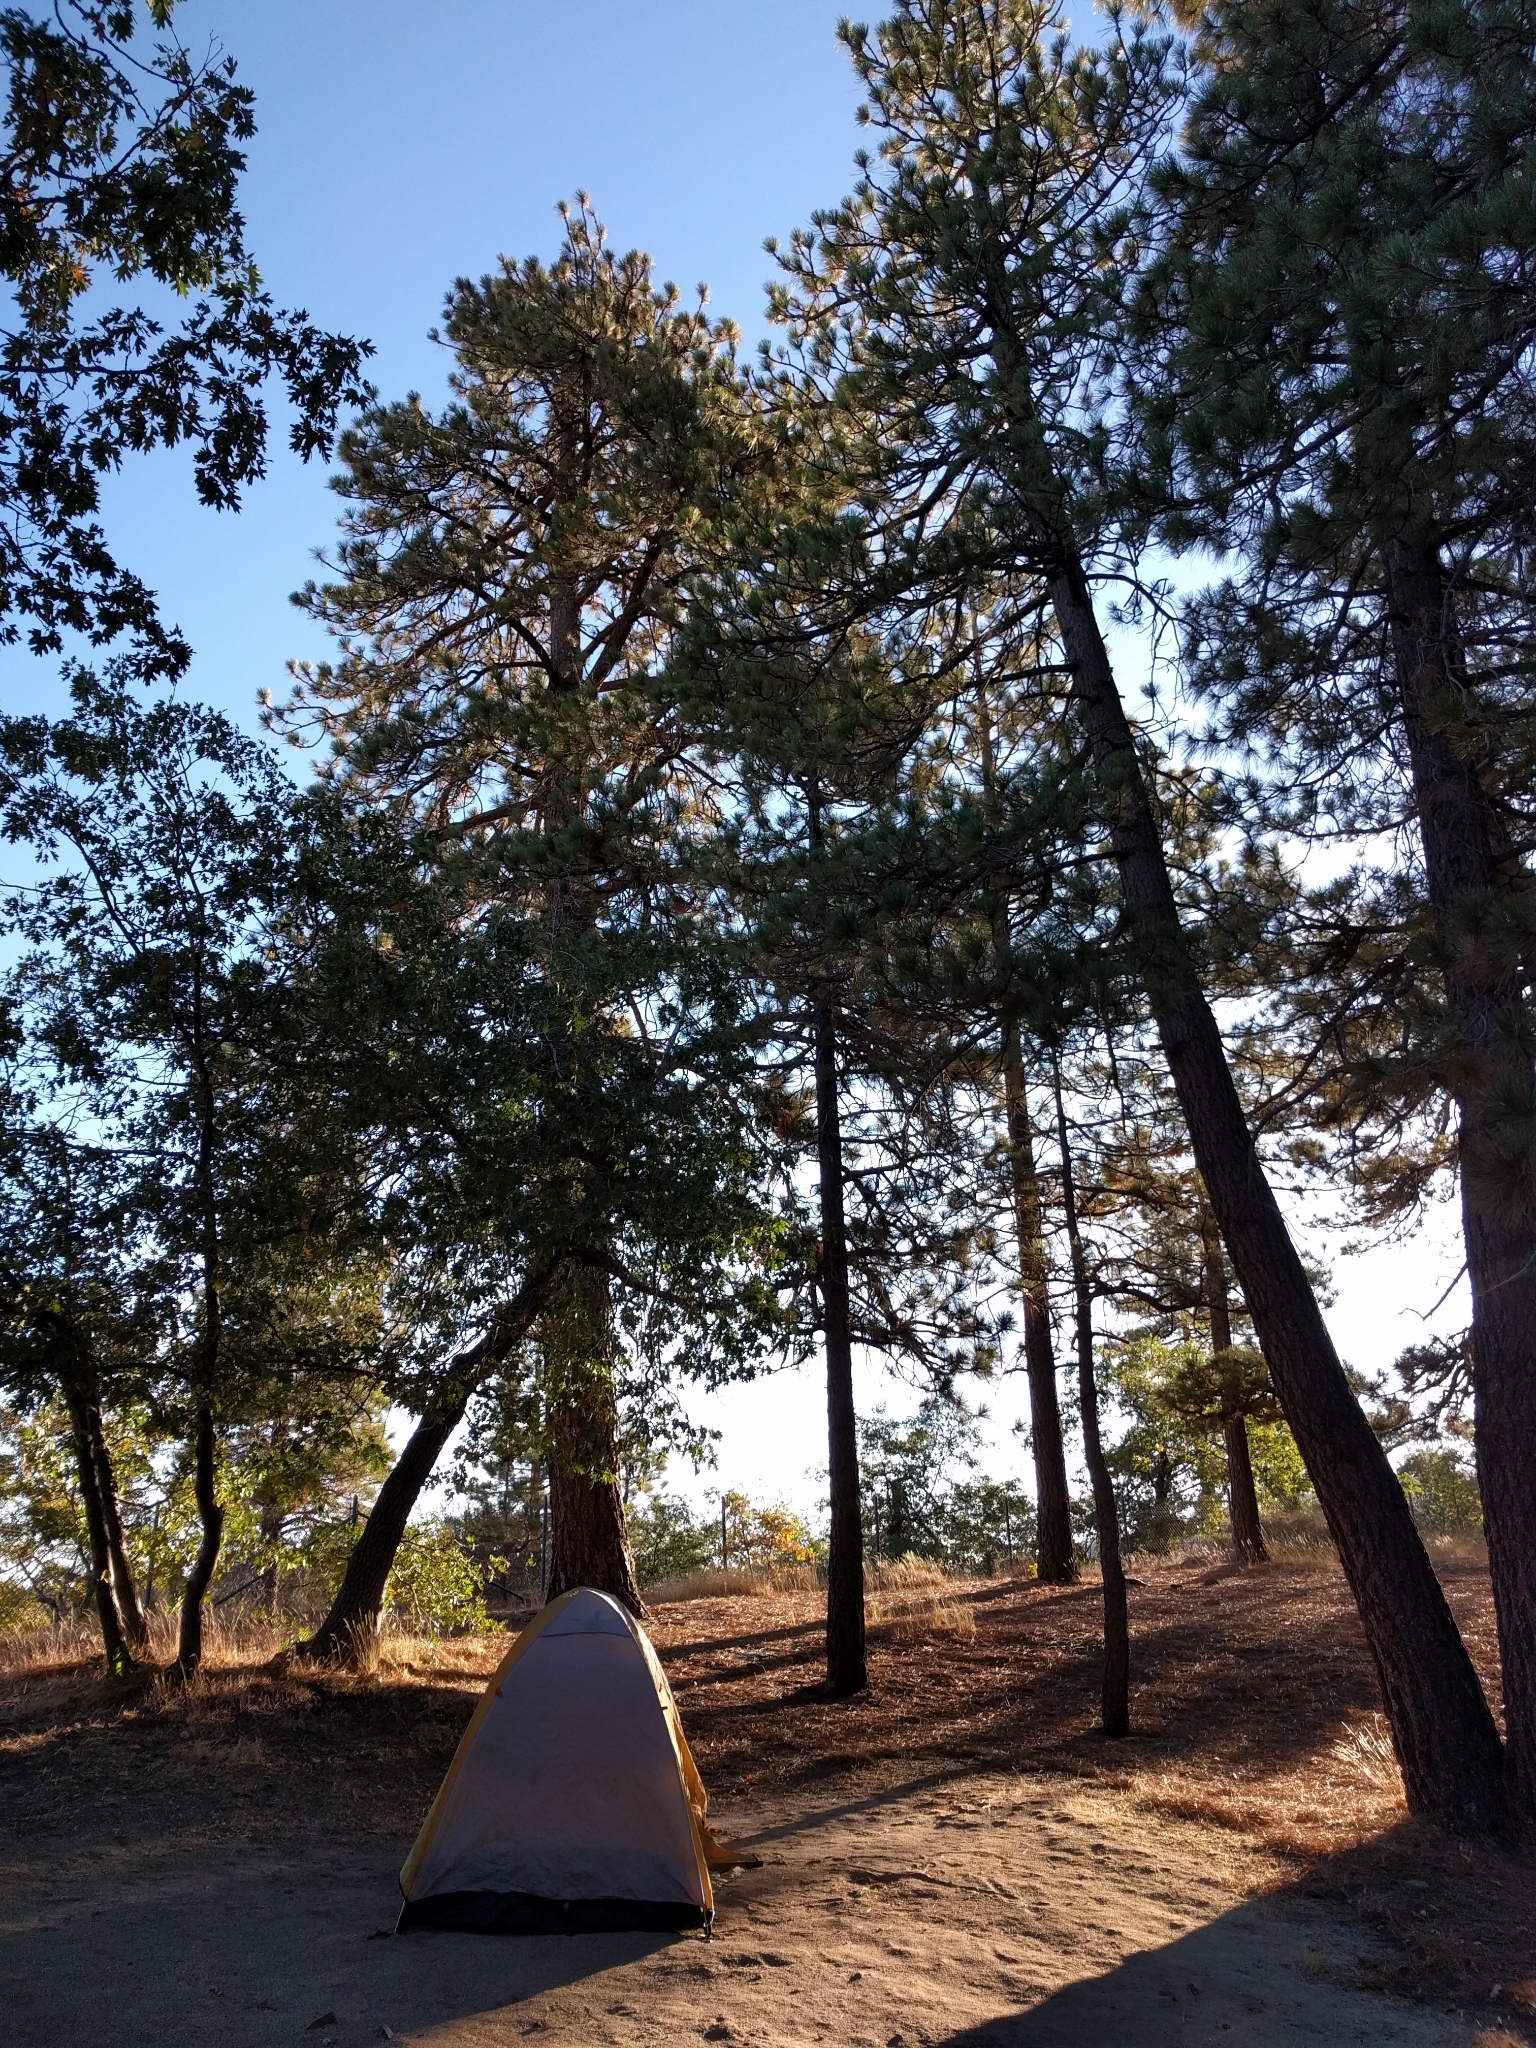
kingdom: Plantae
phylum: Tracheophyta
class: Pinopsida
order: Pinales
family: Pinaceae
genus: Pinus
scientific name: Pinus jeffreyi
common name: Jeffrey pine
